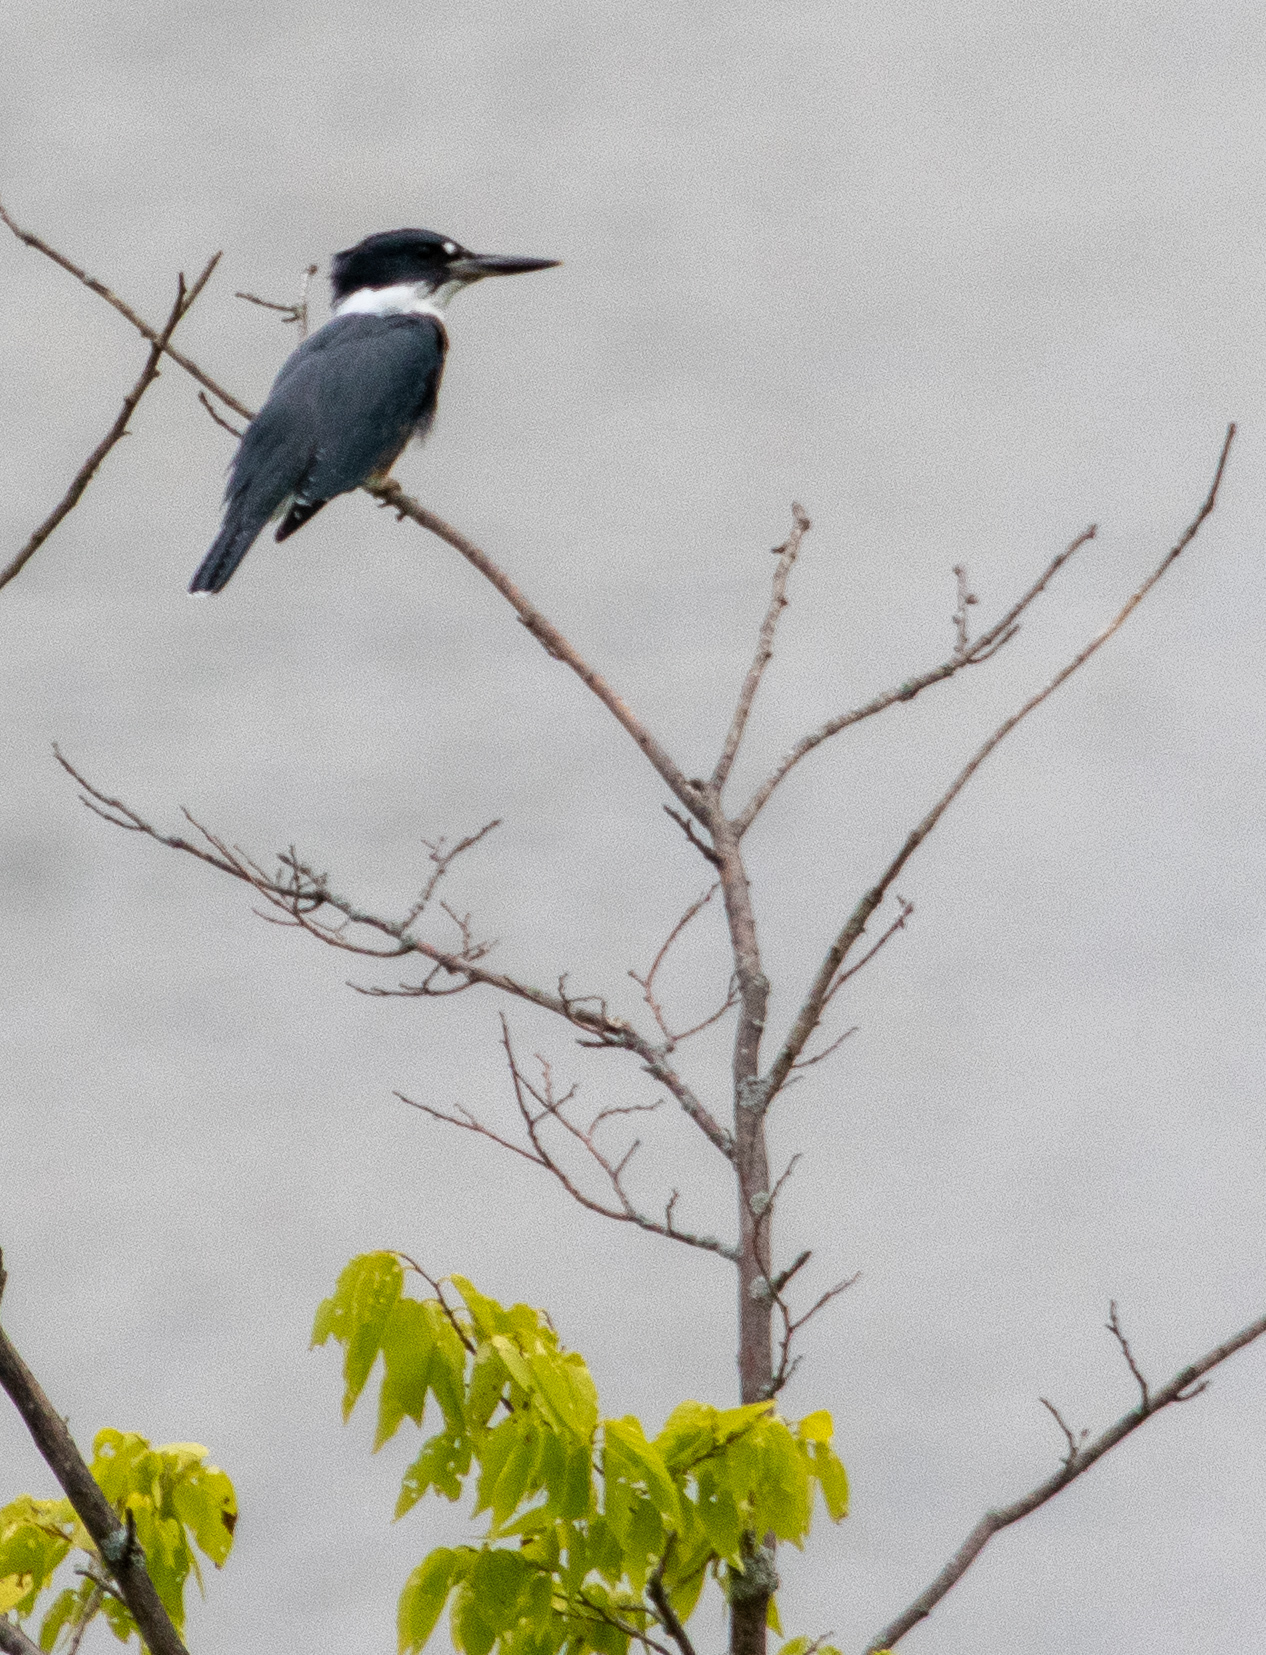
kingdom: Animalia
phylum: Chordata
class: Aves
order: Coraciiformes
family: Alcedinidae
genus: Megaceryle
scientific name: Megaceryle alcyon
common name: Belted kingfisher
